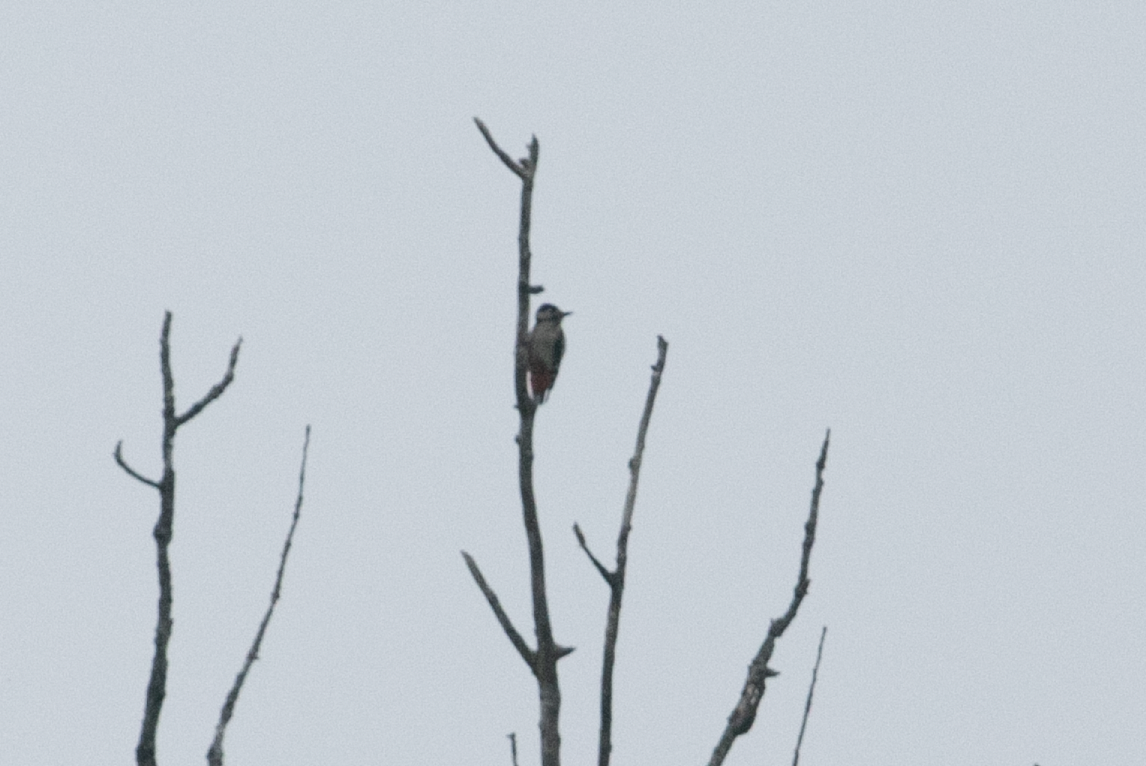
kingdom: Animalia
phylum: Chordata
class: Aves
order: Piciformes
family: Picidae
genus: Dendrocopos
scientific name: Dendrocopos major
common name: Great spotted woodpecker
